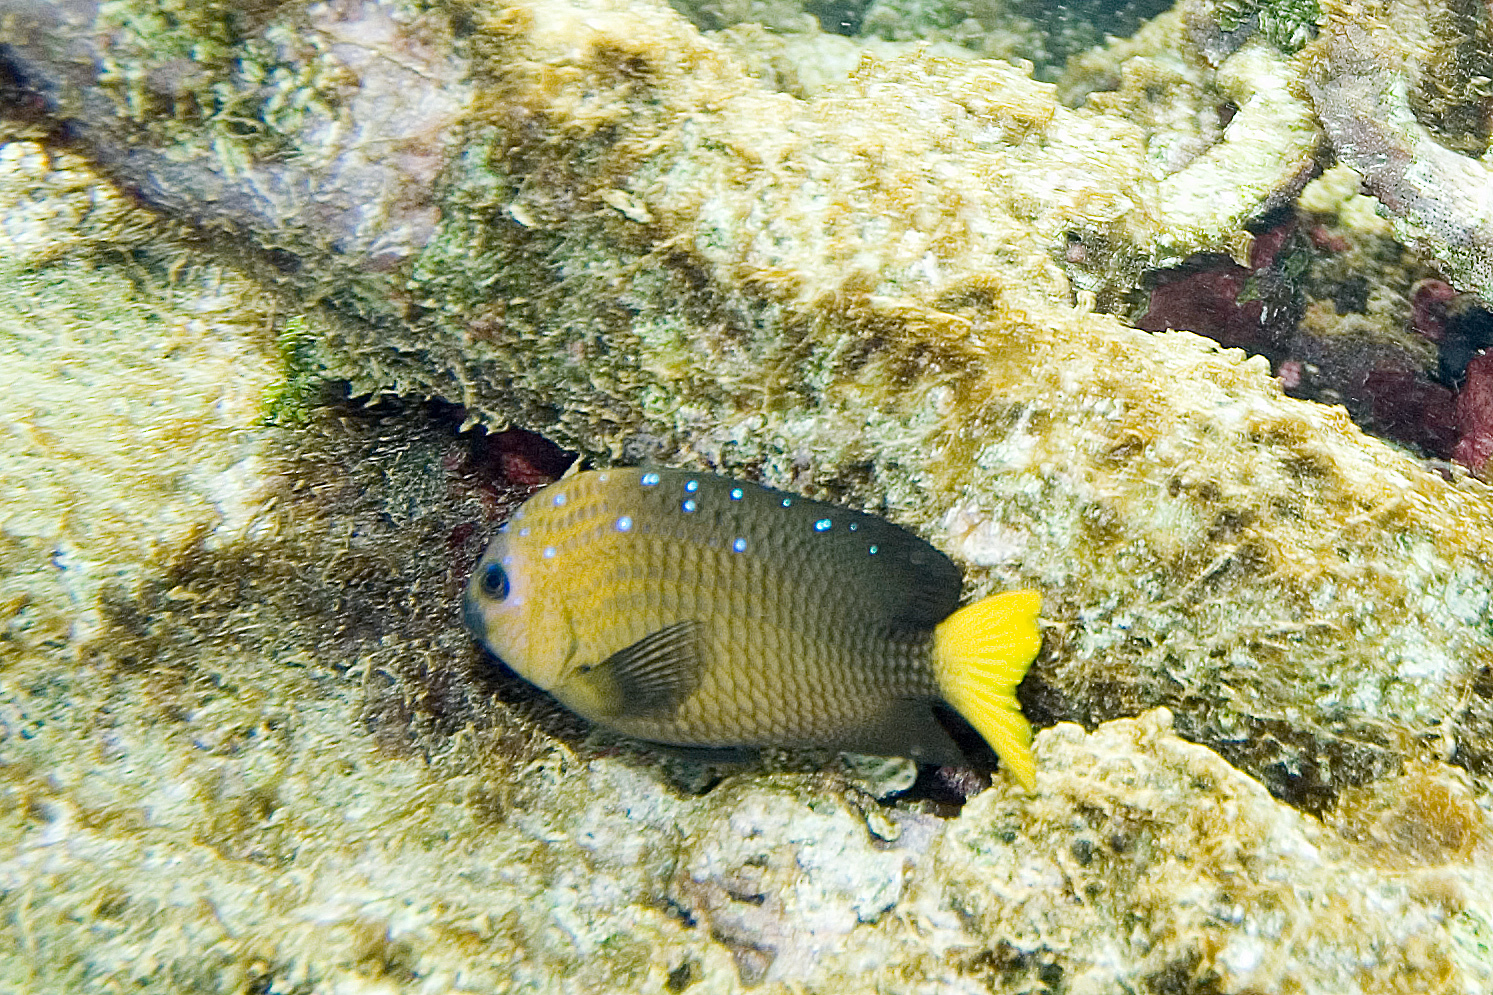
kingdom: Animalia
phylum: Chordata
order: Perciformes
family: Pomacentridae
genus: Microspathodon
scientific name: Microspathodon chrysurus
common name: Yellowtail damselfish
